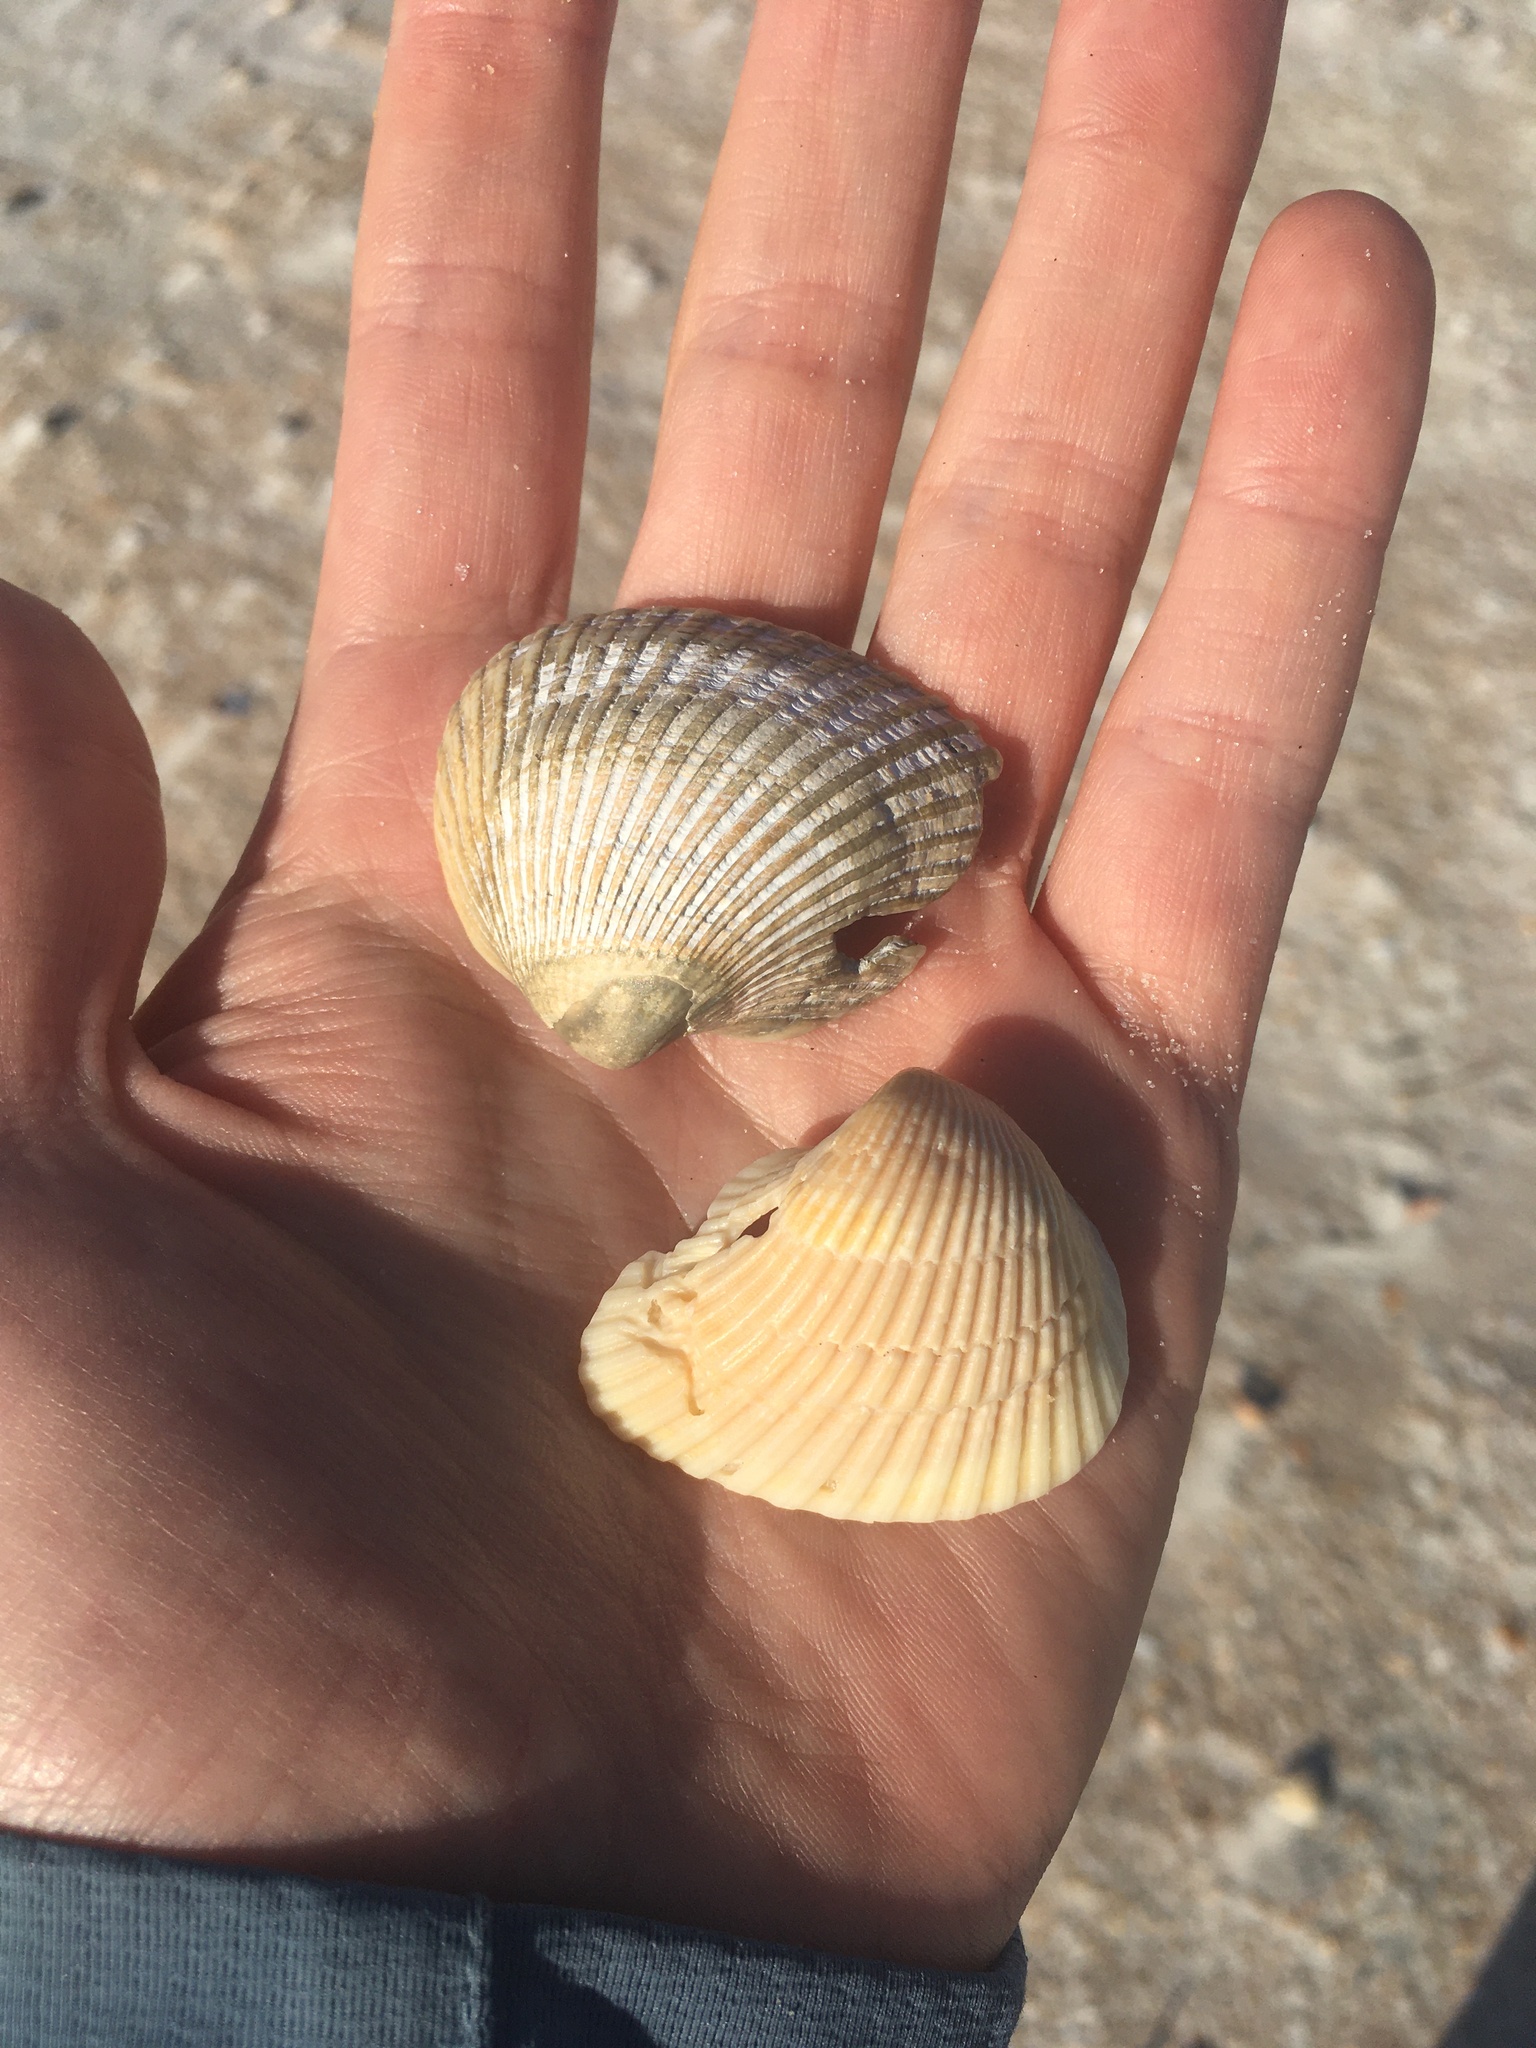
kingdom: Animalia
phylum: Mollusca
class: Bivalvia
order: Arcida
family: Noetiidae
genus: Noetia
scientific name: Noetia ponderosa
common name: Ponderous ark
